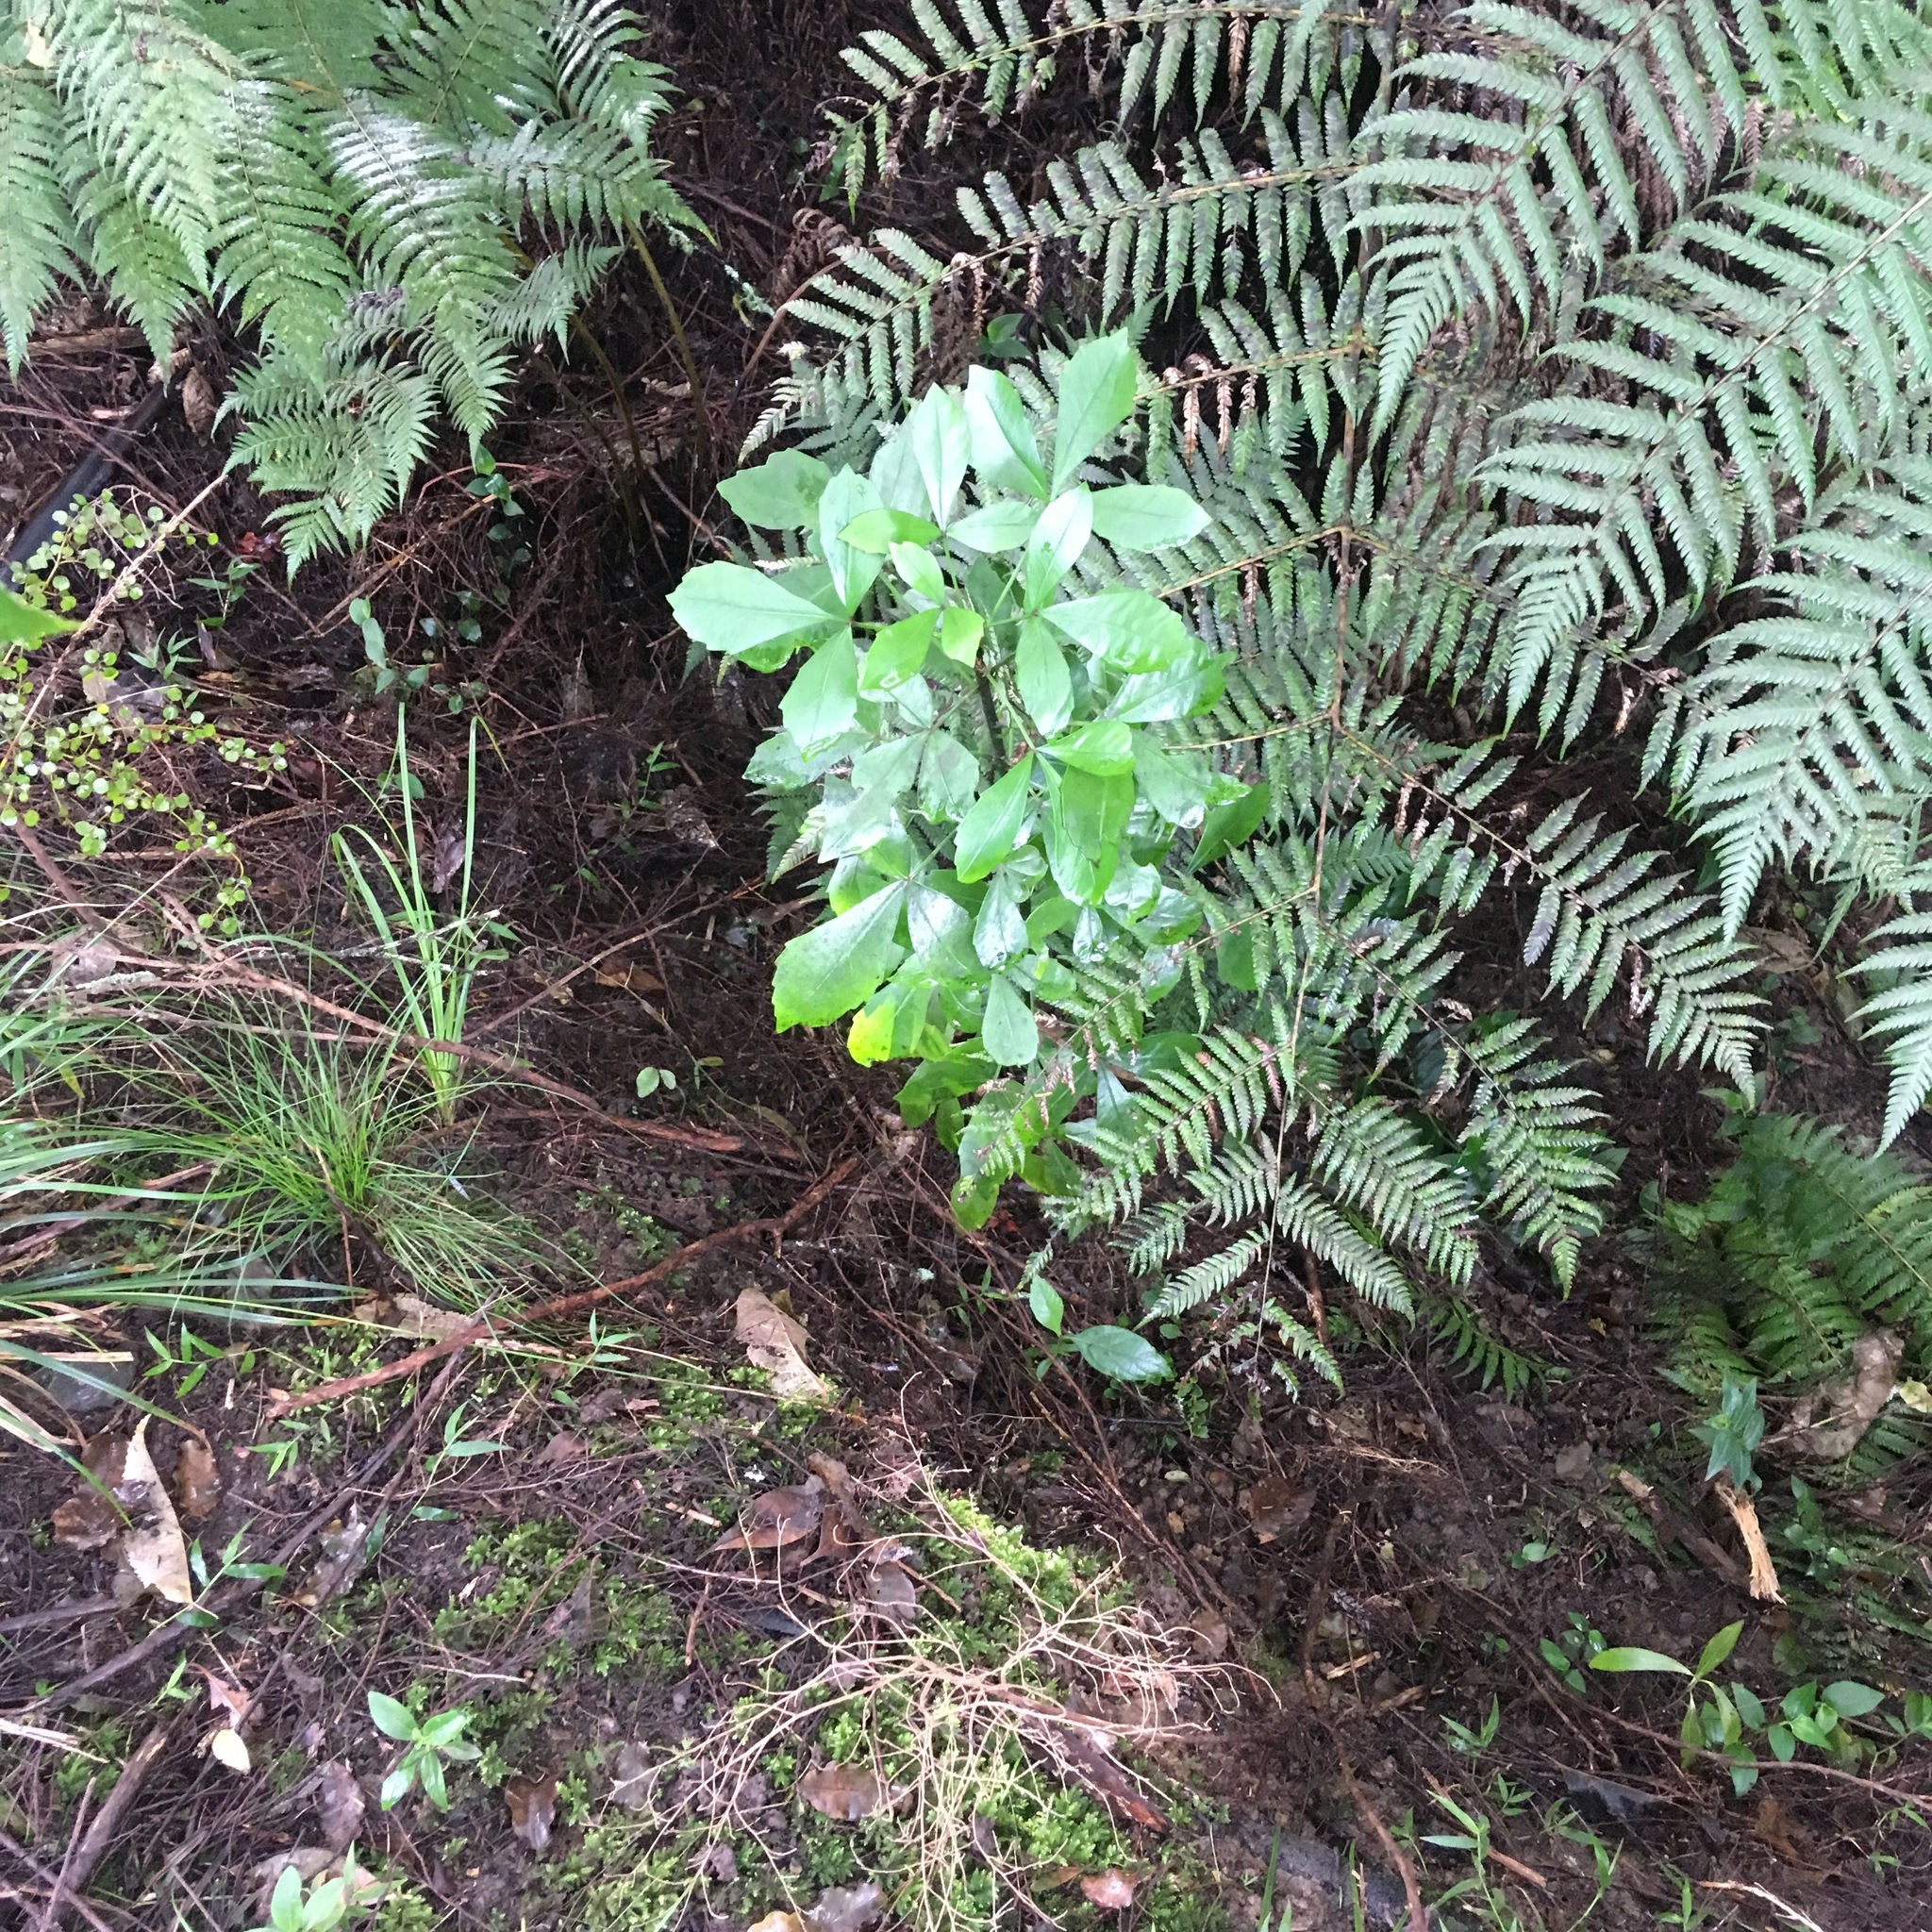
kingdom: Plantae
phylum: Tracheophyta
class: Magnoliopsida
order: Apiales
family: Araliaceae
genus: Pseudopanax
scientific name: Pseudopanax lessonii
